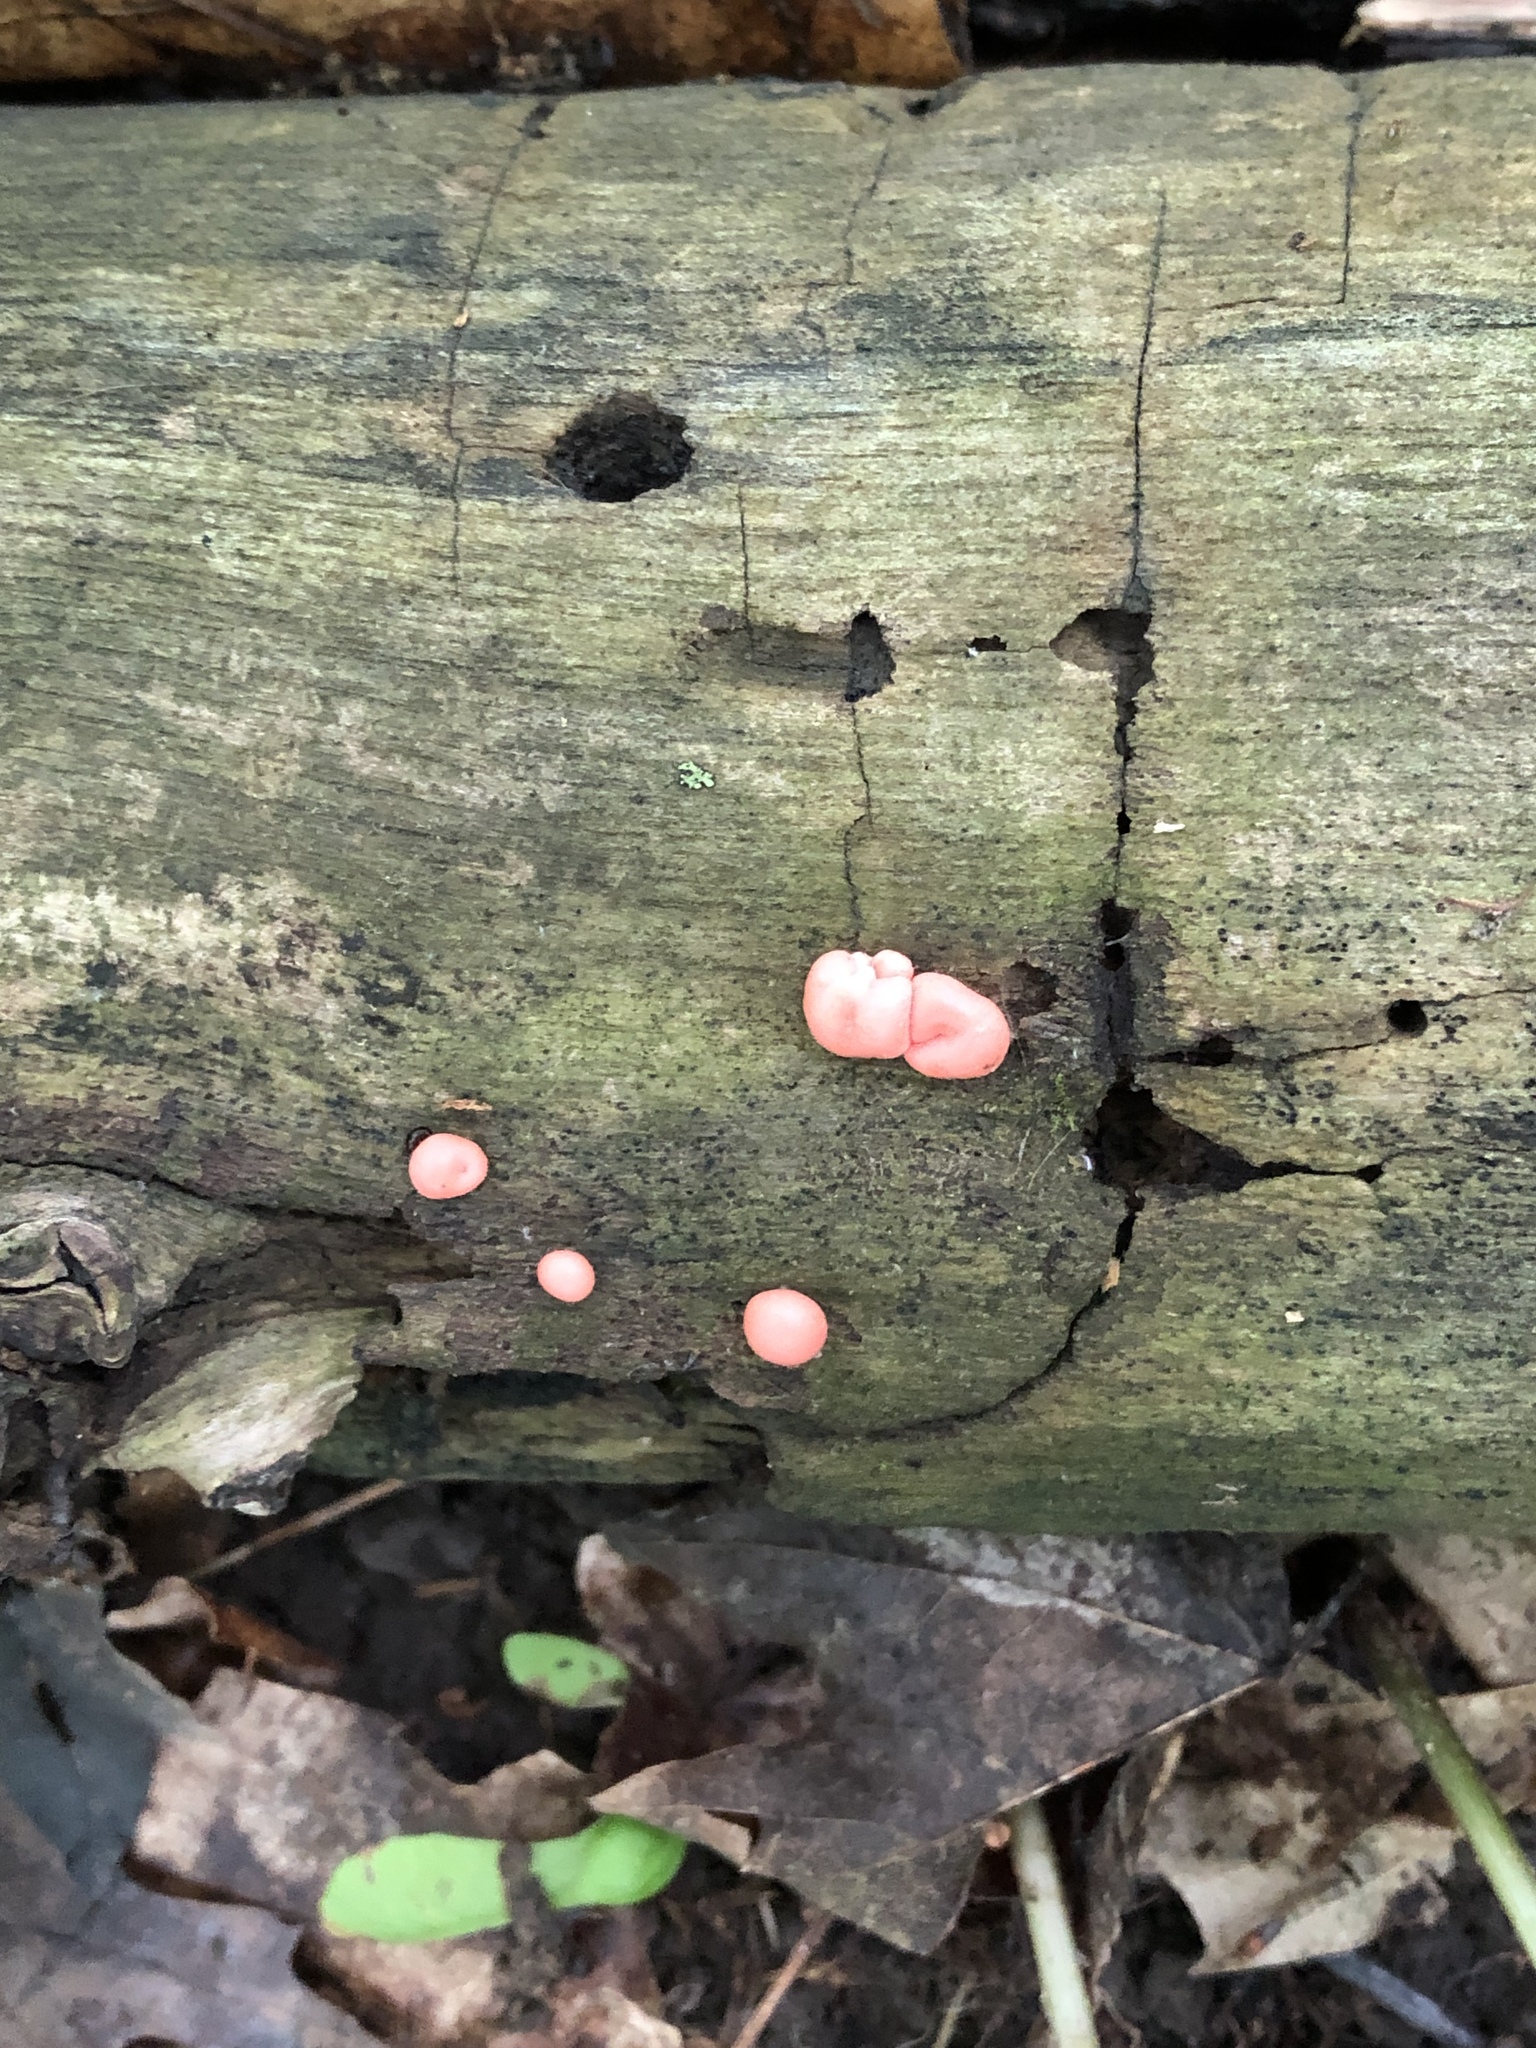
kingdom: Protozoa
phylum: Mycetozoa
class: Myxomycetes
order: Cribrariales
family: Tubiferaceae
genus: Lycogala
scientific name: Lycogala epidendrum
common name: Wolf's milk
